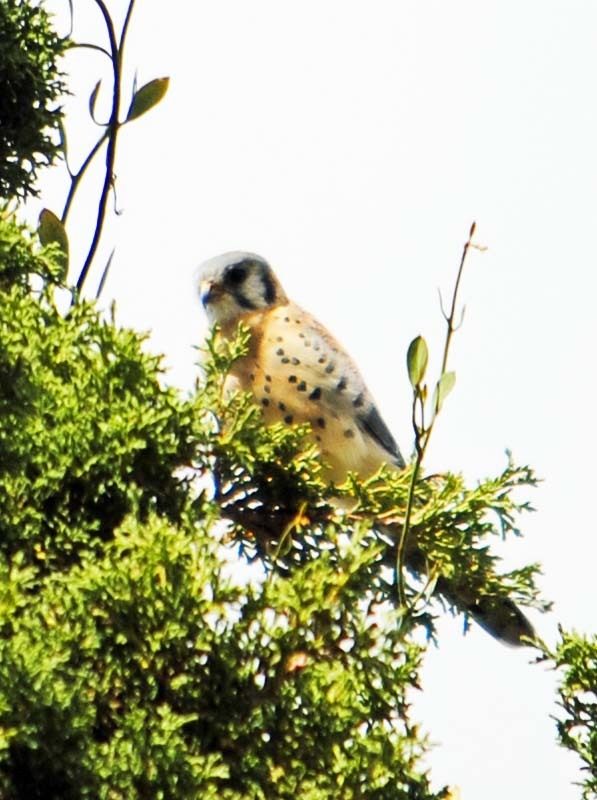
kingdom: Animalia
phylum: Chordata
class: Aves
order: Falconiformes
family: Falconidae
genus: Falco
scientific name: Falco sparverius
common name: American kestrel
